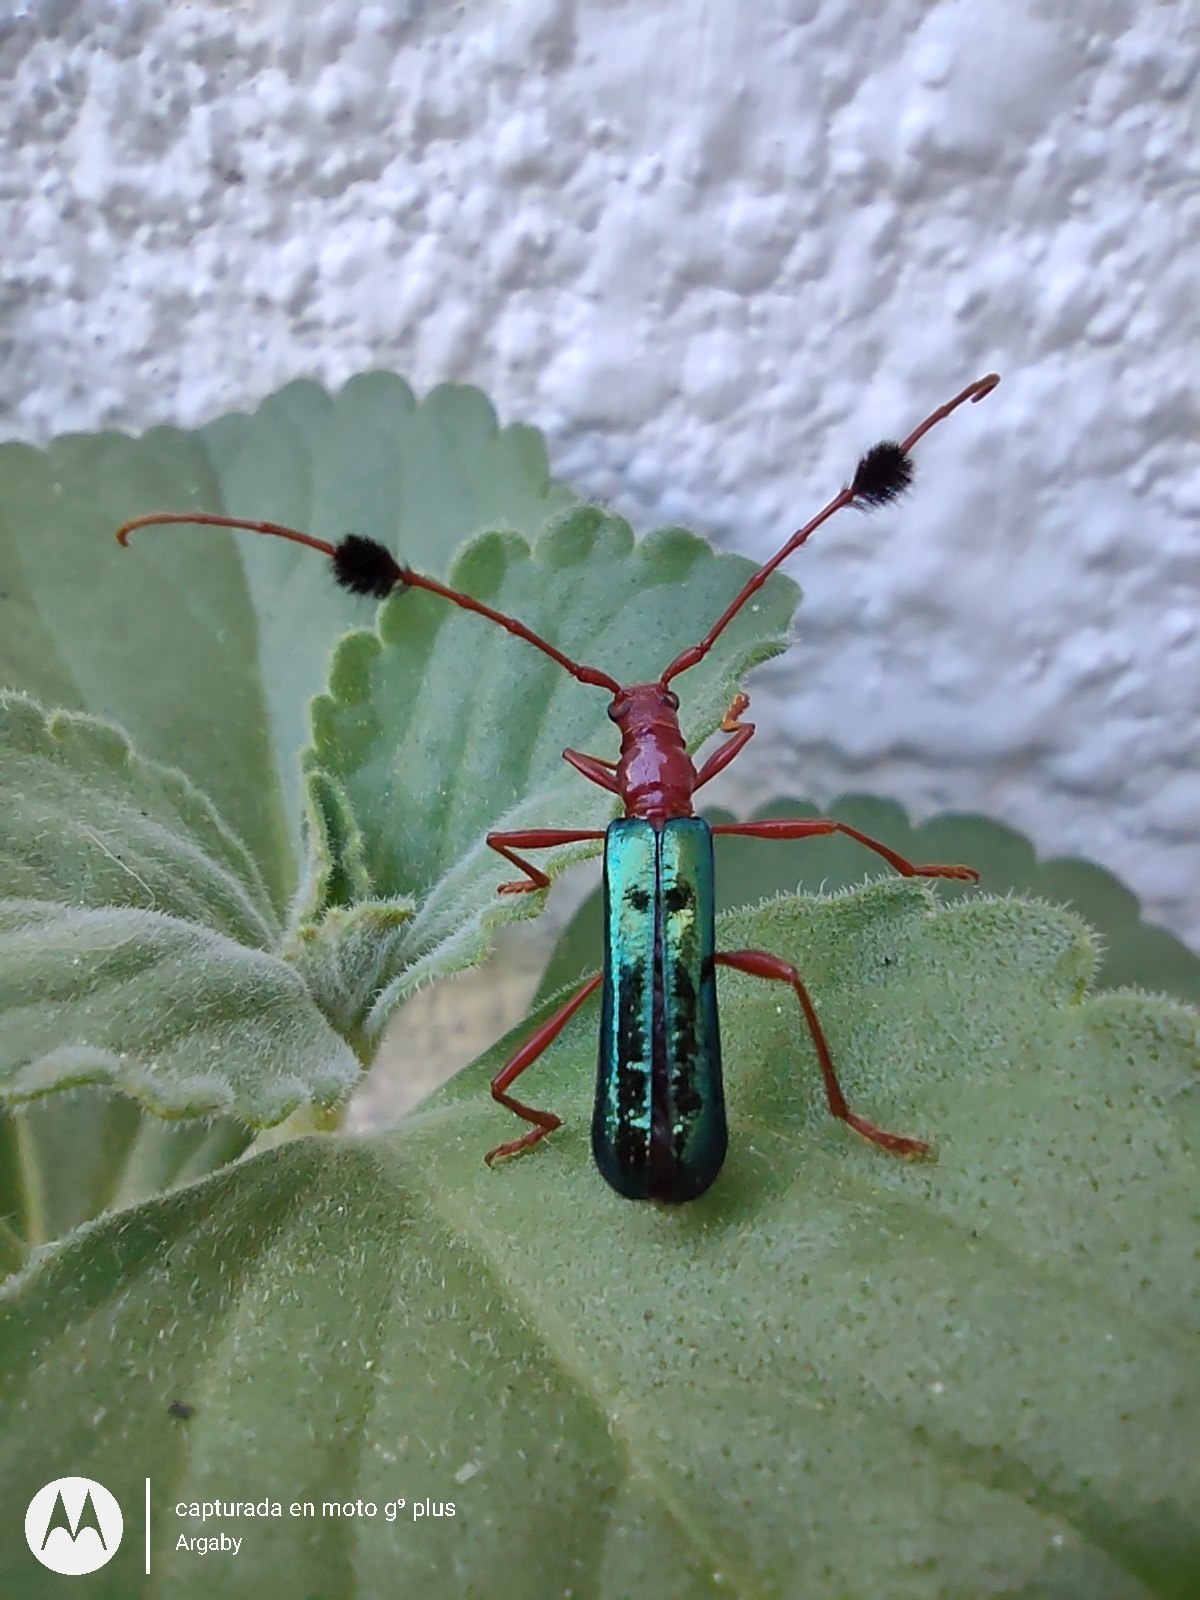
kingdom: Animalia
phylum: Arthropoda
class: Insecta
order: Coleoptera
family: Cerambycidae
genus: Paromoeocerus
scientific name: Paromoeocerus barbicornis
